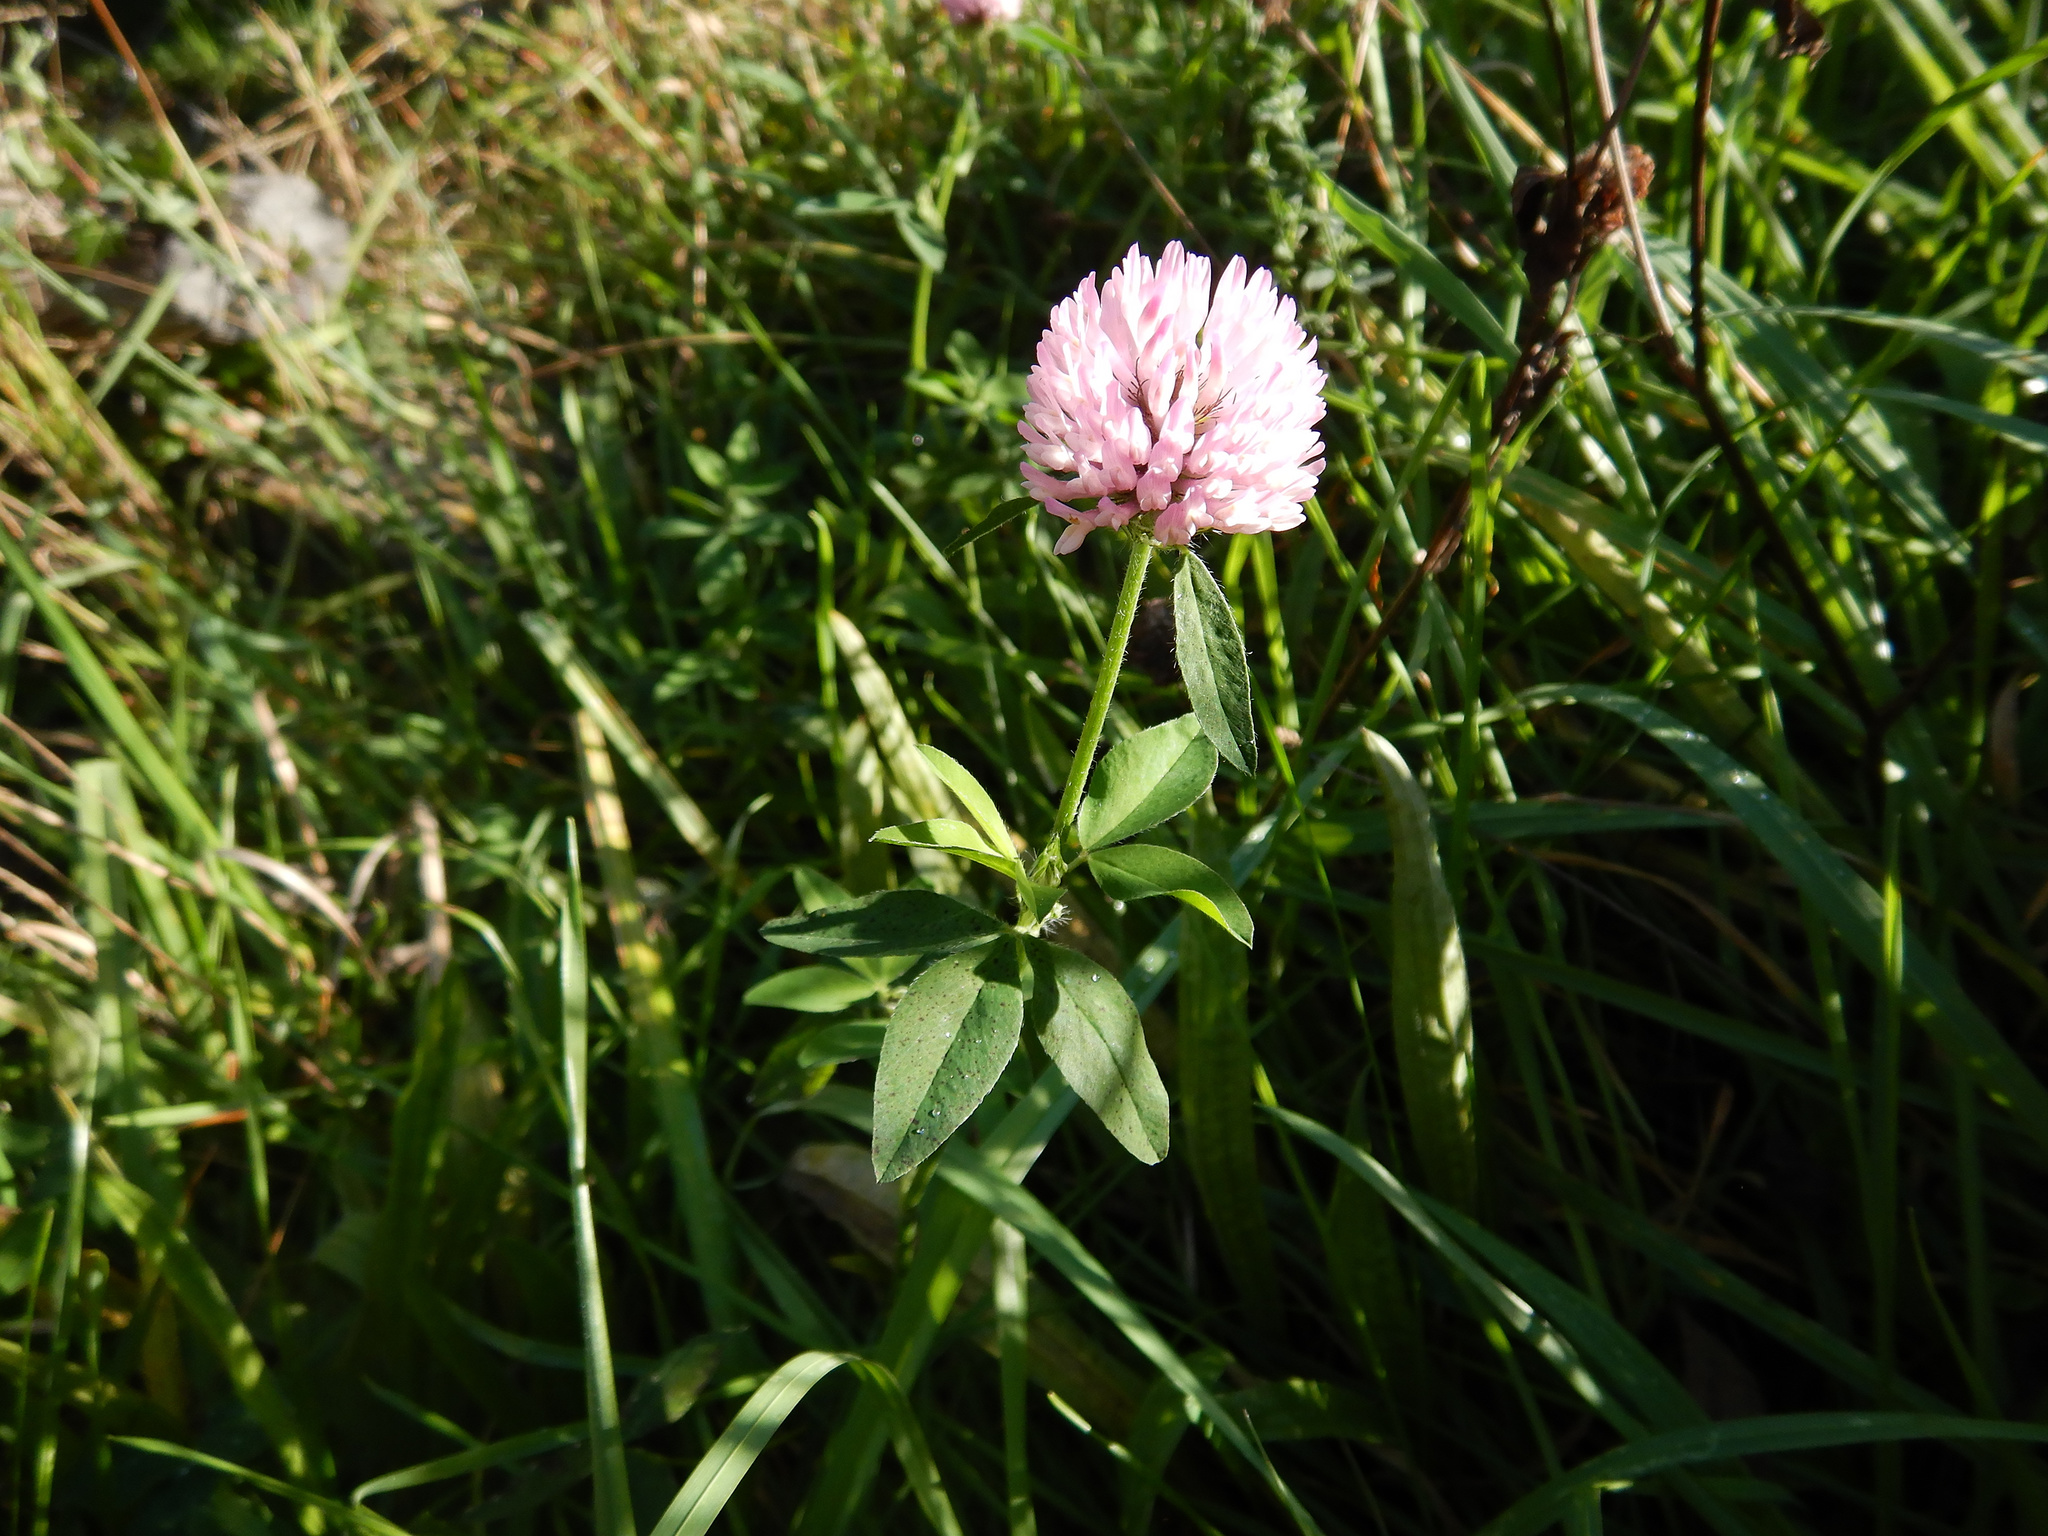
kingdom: Plantae
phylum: Tracheophyta
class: Magnoliopsida
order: Fabales
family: Fabaceae
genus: Trifolium
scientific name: Trifolium pratense
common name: Red clover
